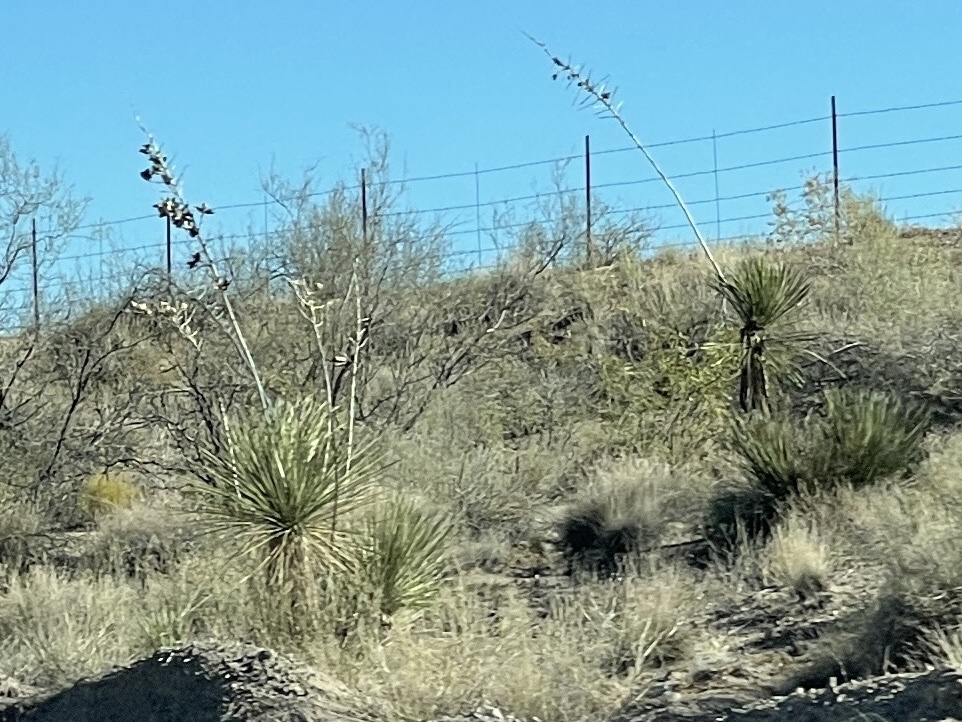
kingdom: Plantae
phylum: Tracheophyta
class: Liliopsida
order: Asparagales
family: Asparagaceae
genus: Yucca
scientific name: Yucca elata
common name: Palmella
